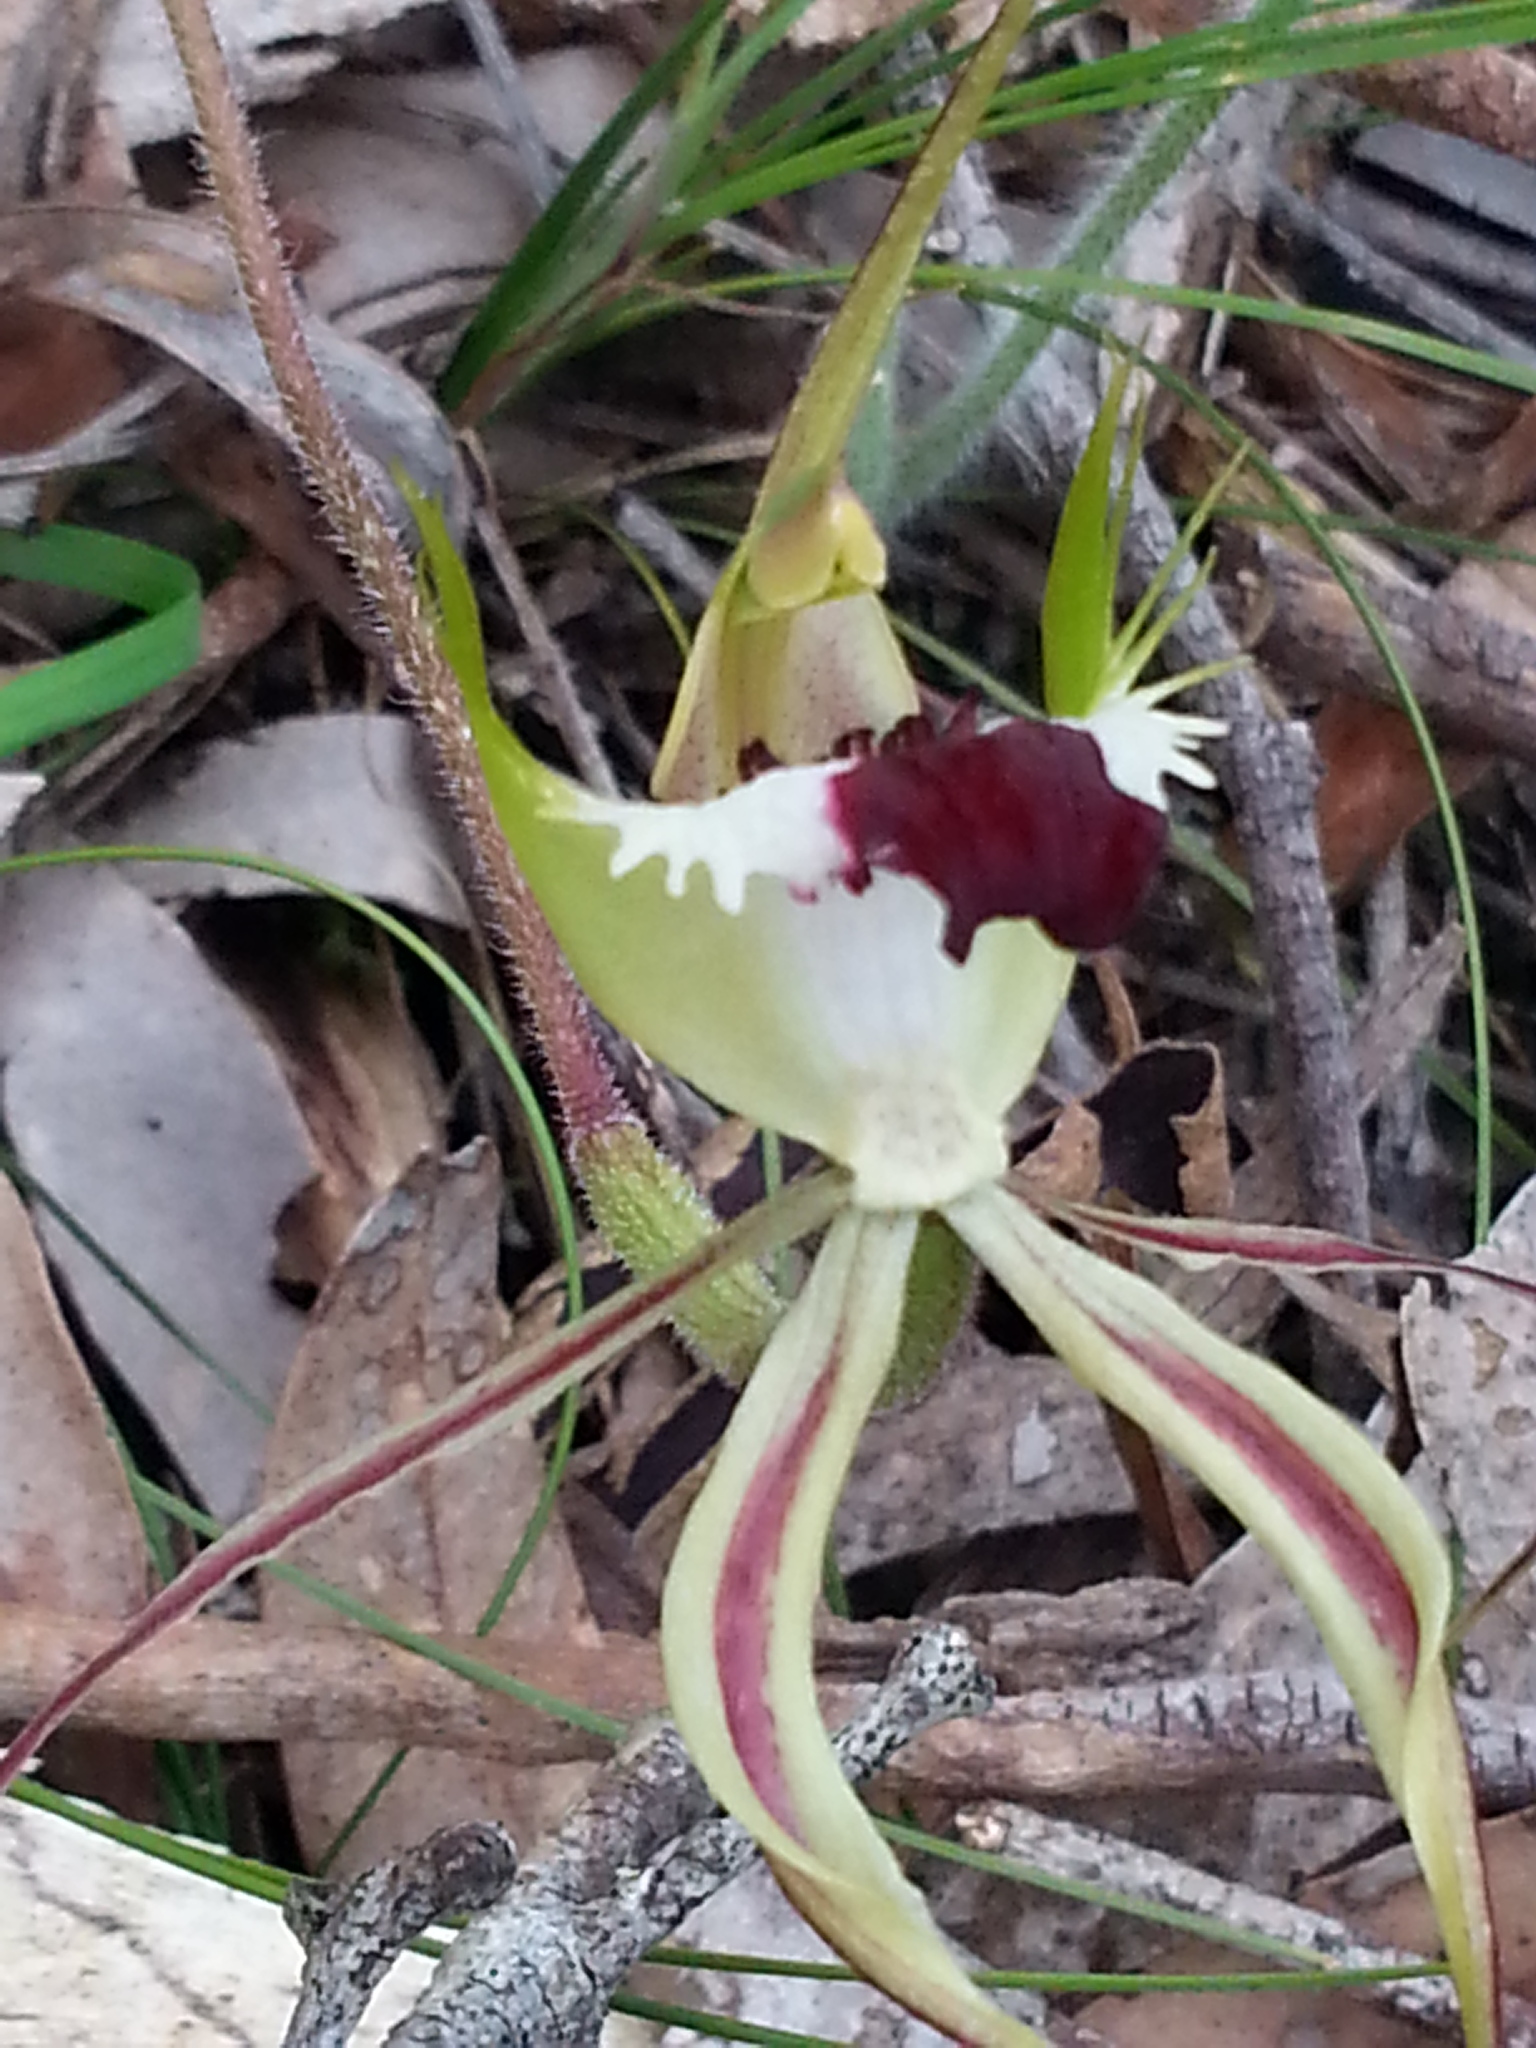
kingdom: Plantae
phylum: Tracheophyta
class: Liliopsida
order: Asparagales
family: Orchidaceae
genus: Caladenia
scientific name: Caladenia tentaculata
